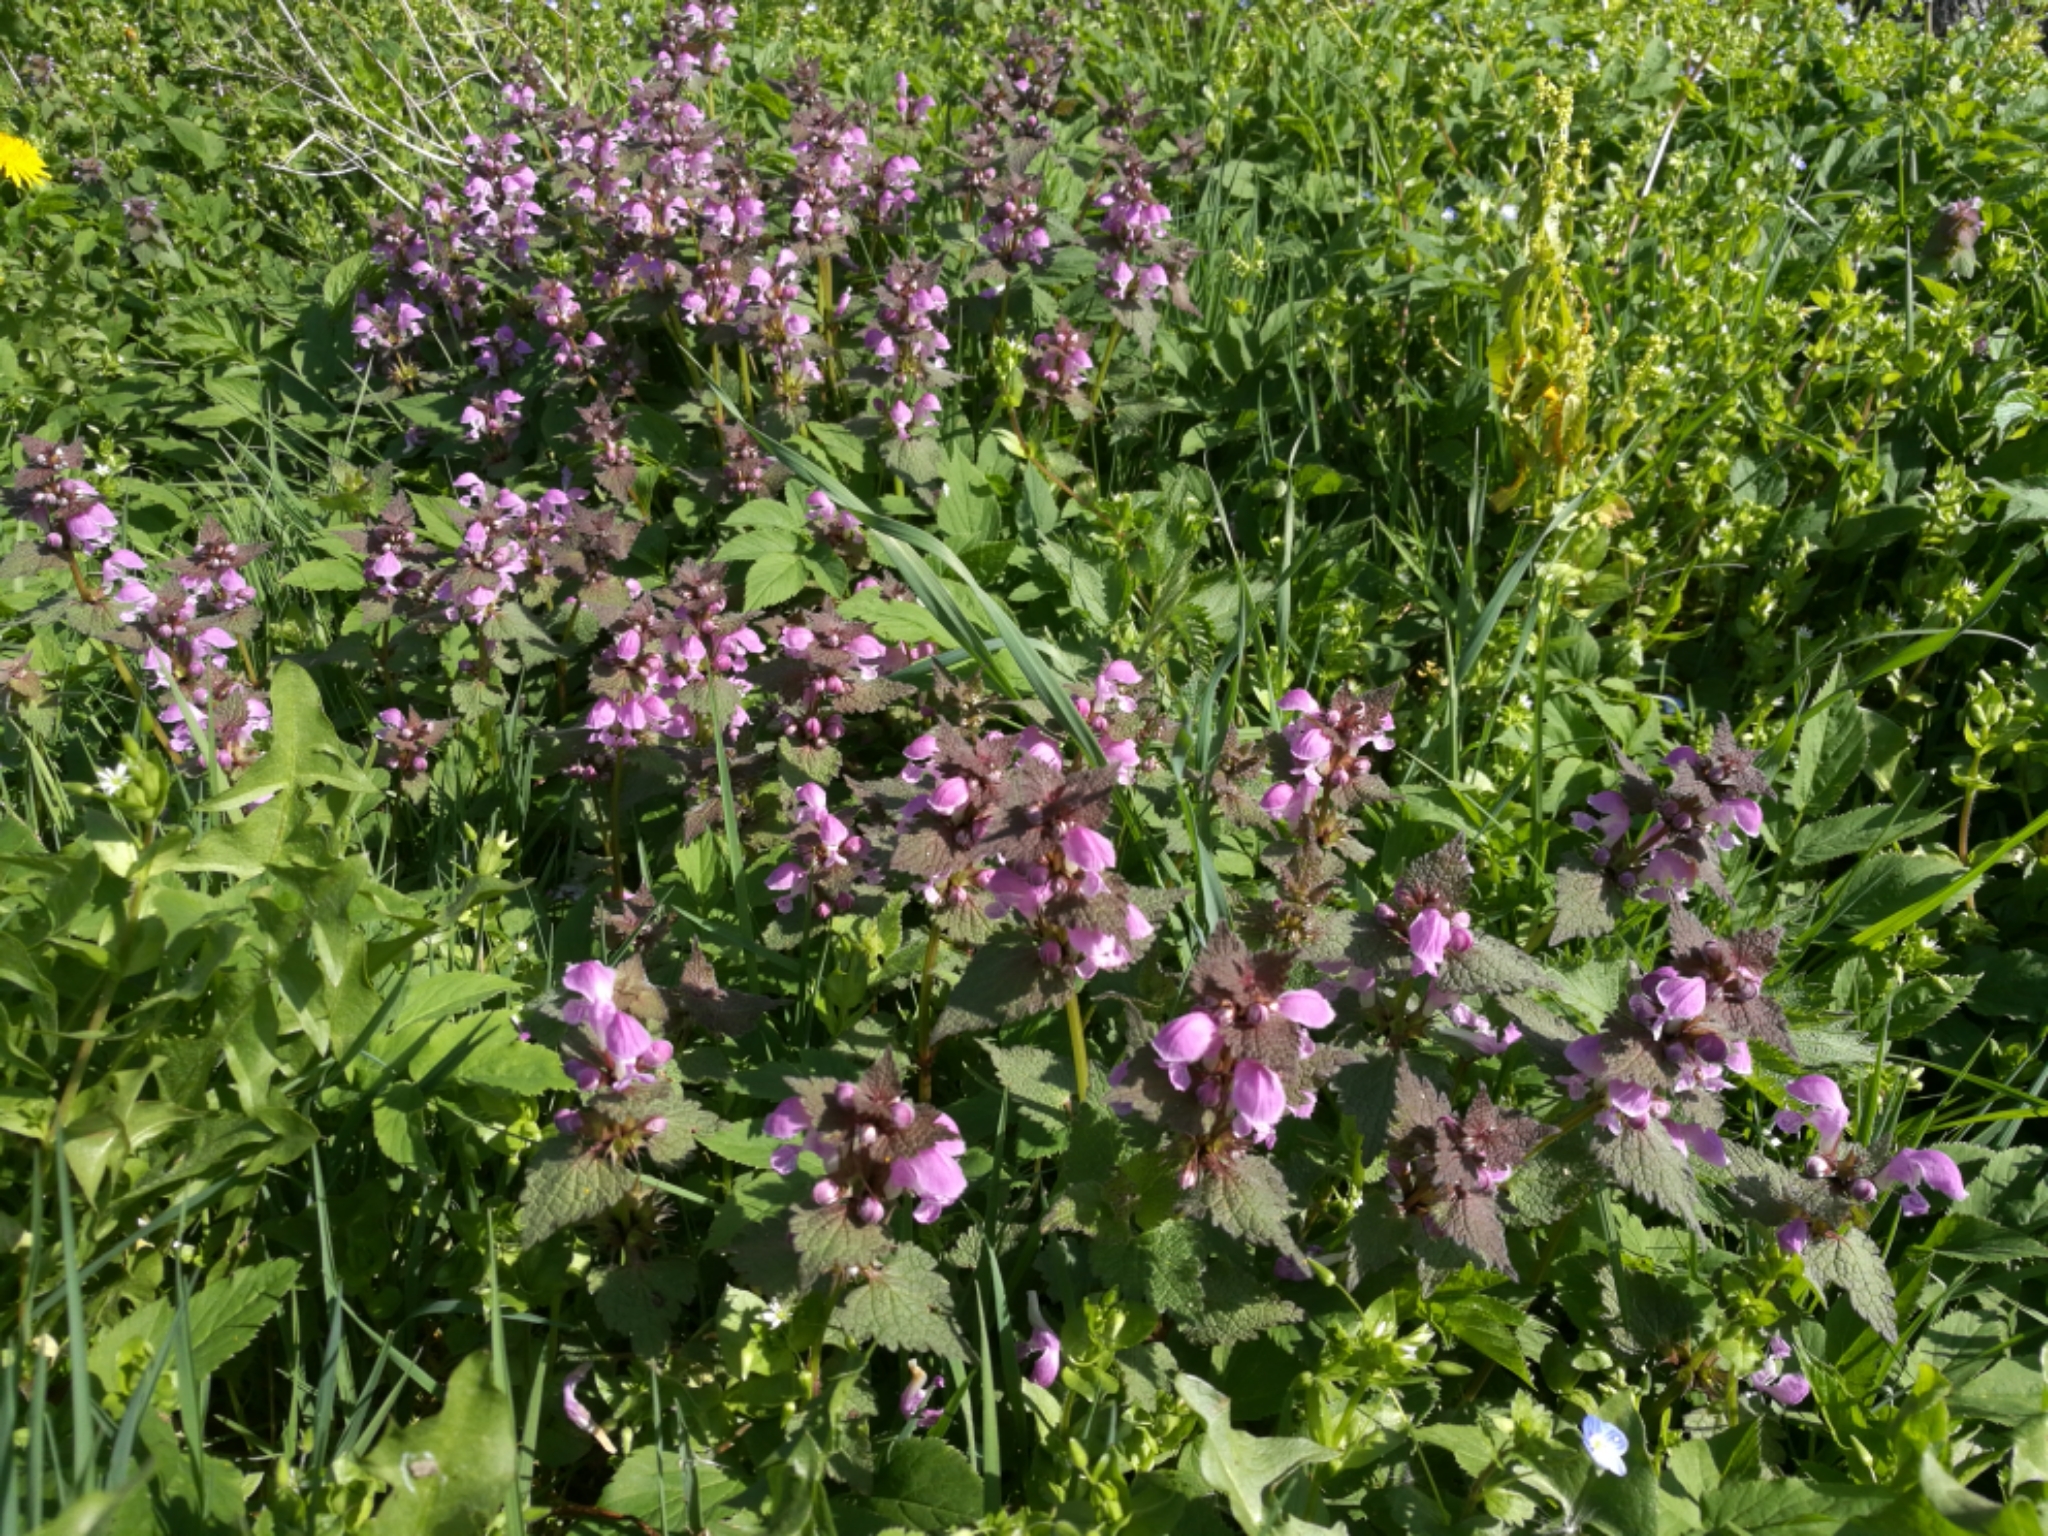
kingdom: Plantae
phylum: Tracheophyta
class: Magnoliopsida
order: Lamiales
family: Lamiaceae
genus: Lamium
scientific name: Lamium purpureum
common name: Red dead-nettle
